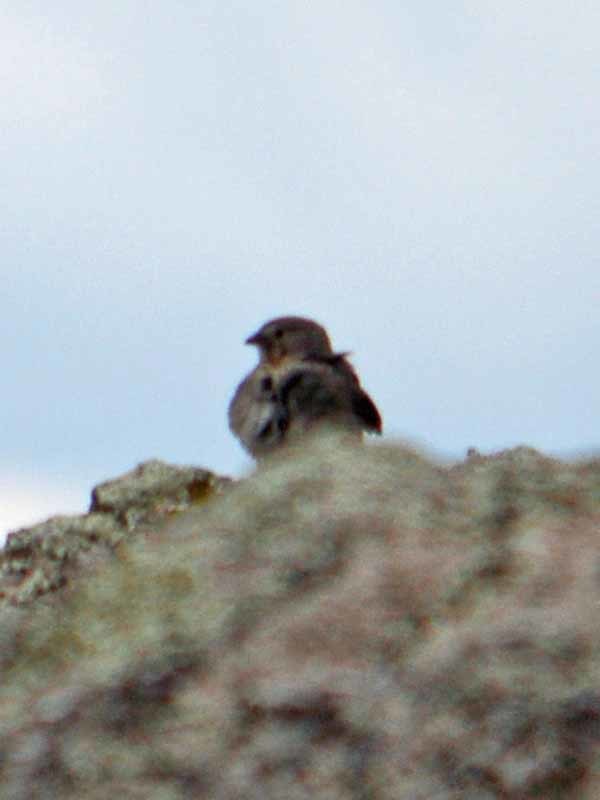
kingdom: Animalia
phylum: Chordata
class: Aves
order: Passeriformes
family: Passerellidae
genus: Melozone
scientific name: Melozone fusca
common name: Canyon towhee
